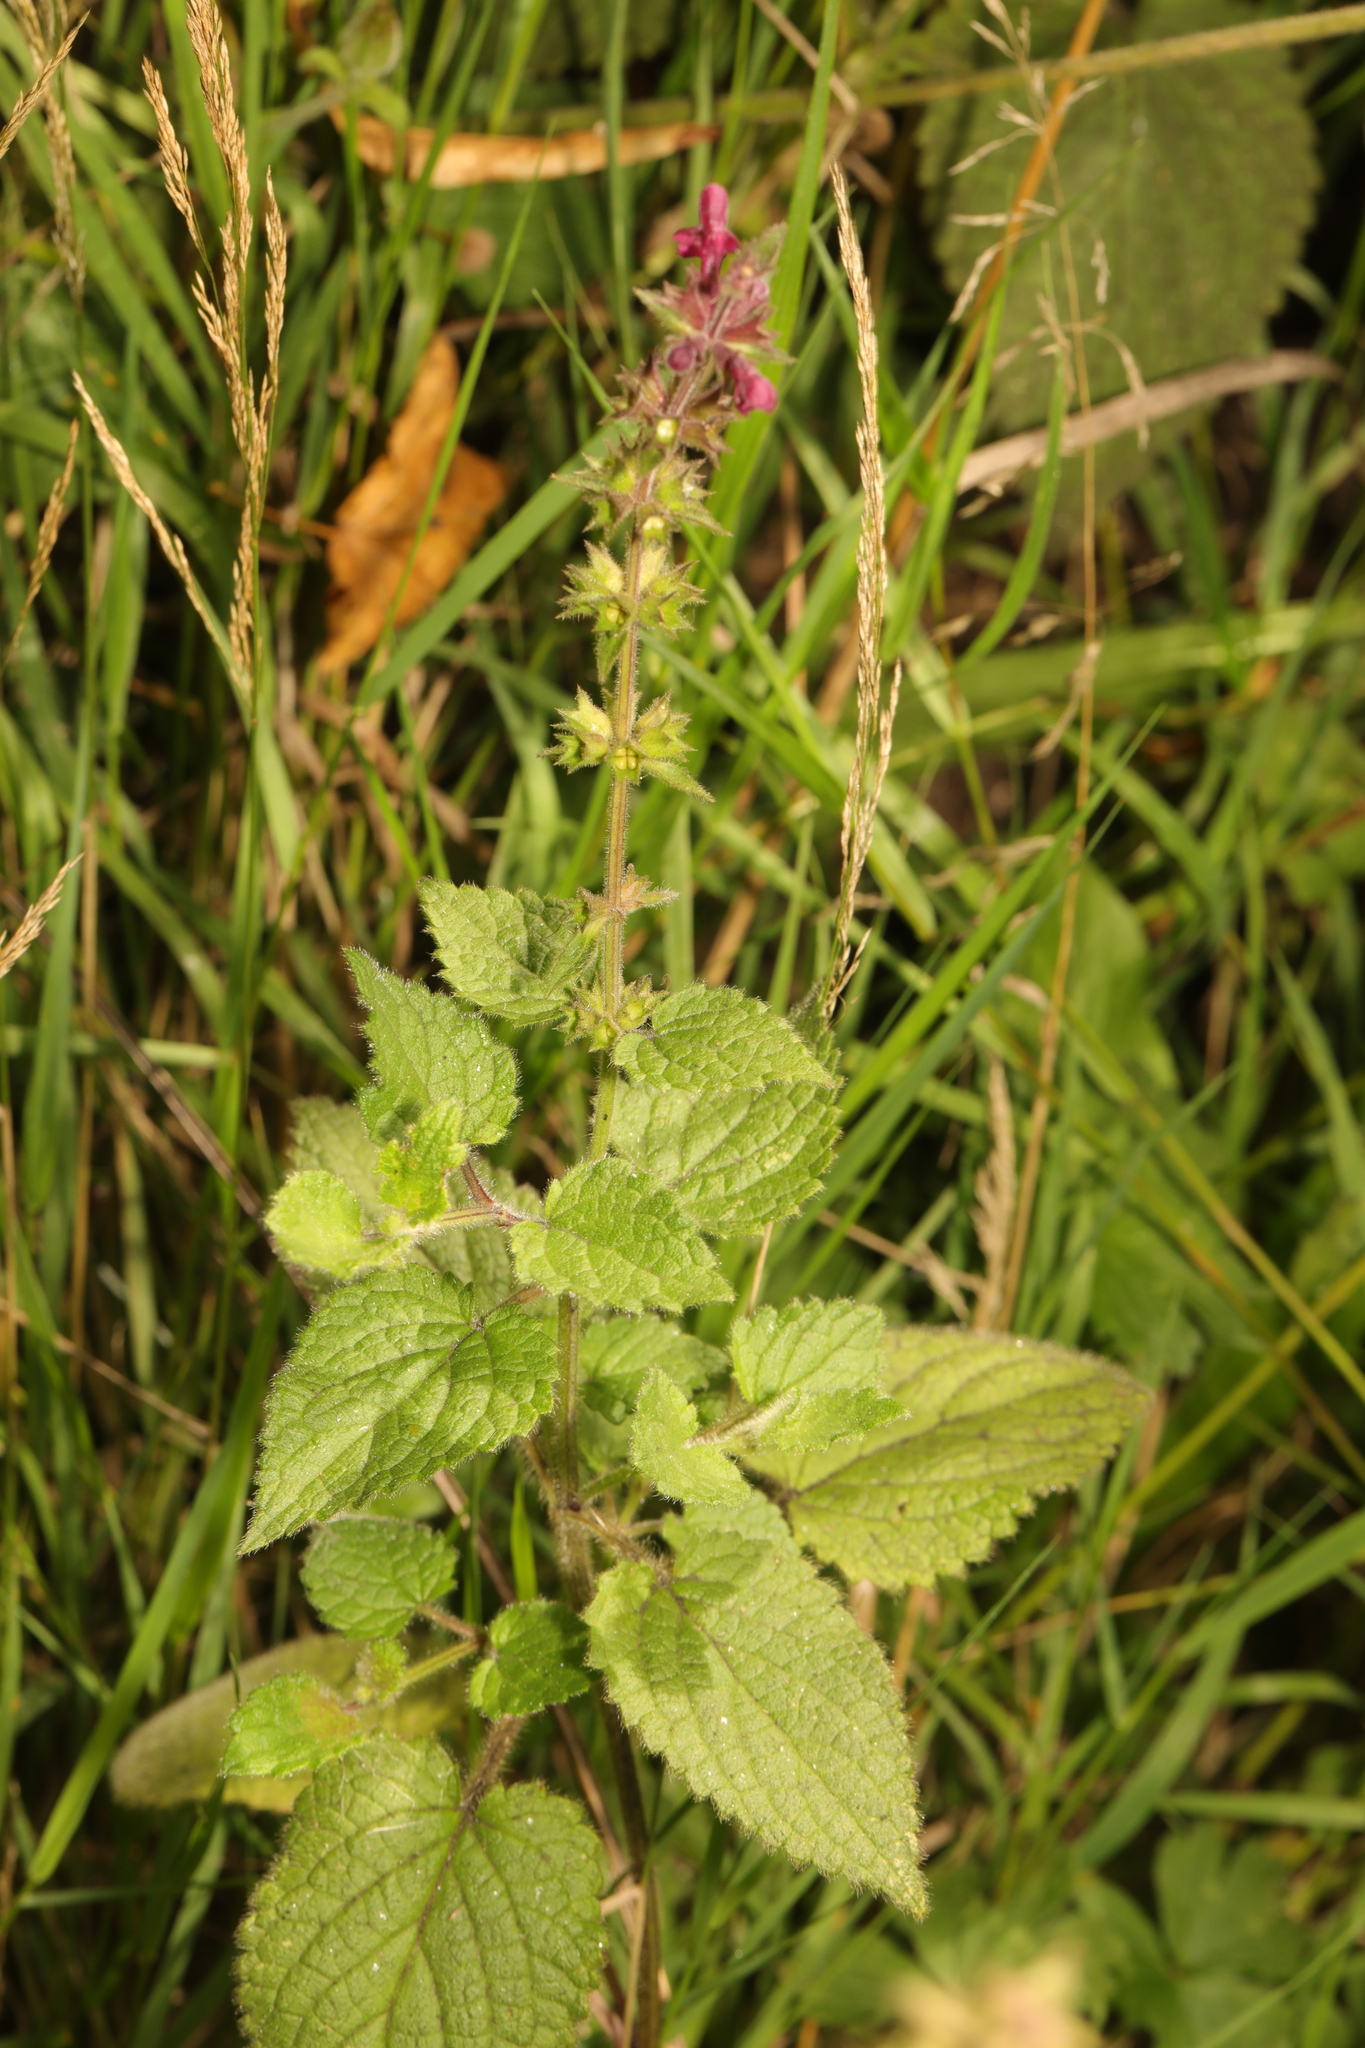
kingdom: Plantae
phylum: Tracheophyta
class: Magnoliopsida
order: Lamiales
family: Lamiaceae
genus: Stachys
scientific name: Stachys sylvatica
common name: Hedge woundwort
